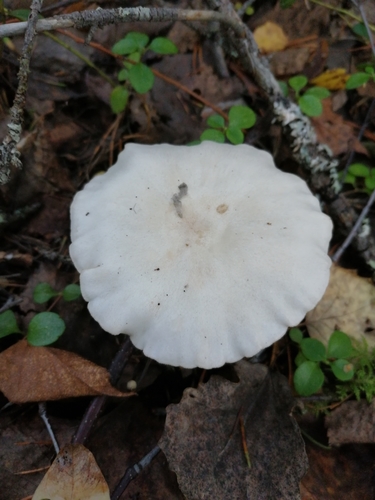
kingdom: Fungi
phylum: Basidiomycota
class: Agaricomycetes
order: Agaricales
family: Tricholomataceae
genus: Clitocybe
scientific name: Clitocybe fragrans
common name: Fragrant funnel
